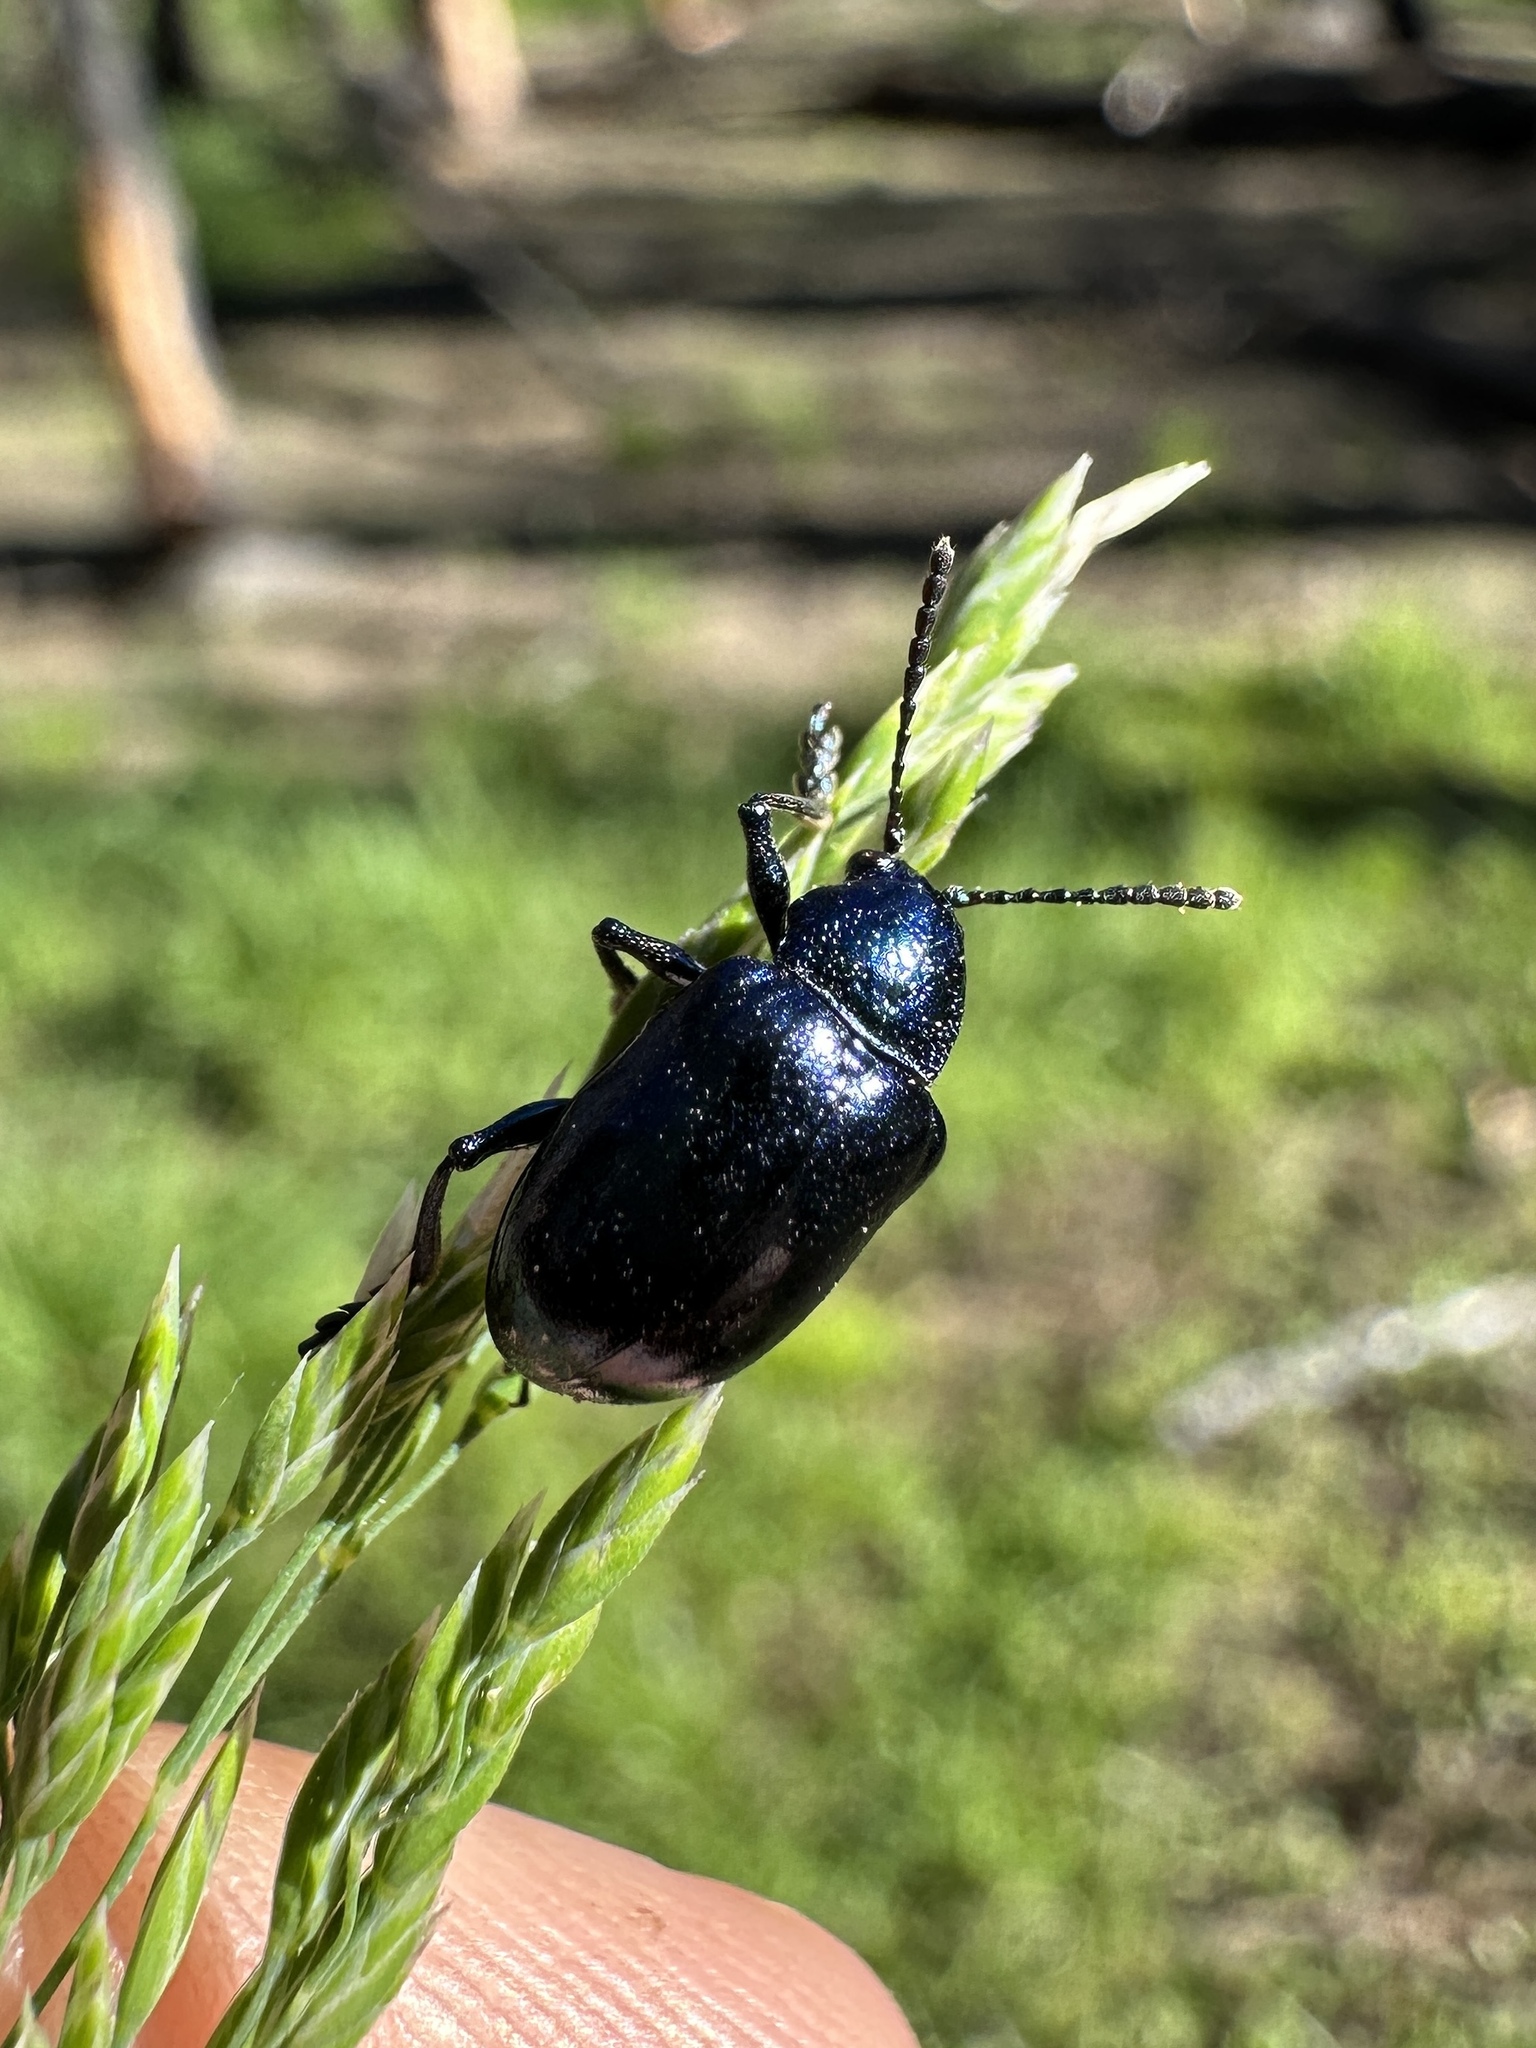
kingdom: Animalia
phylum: Arthropoda
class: Insecta
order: Coleoptera
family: Chrysomelidae
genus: Chrysochus
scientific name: Chrysochus cobaltinus
